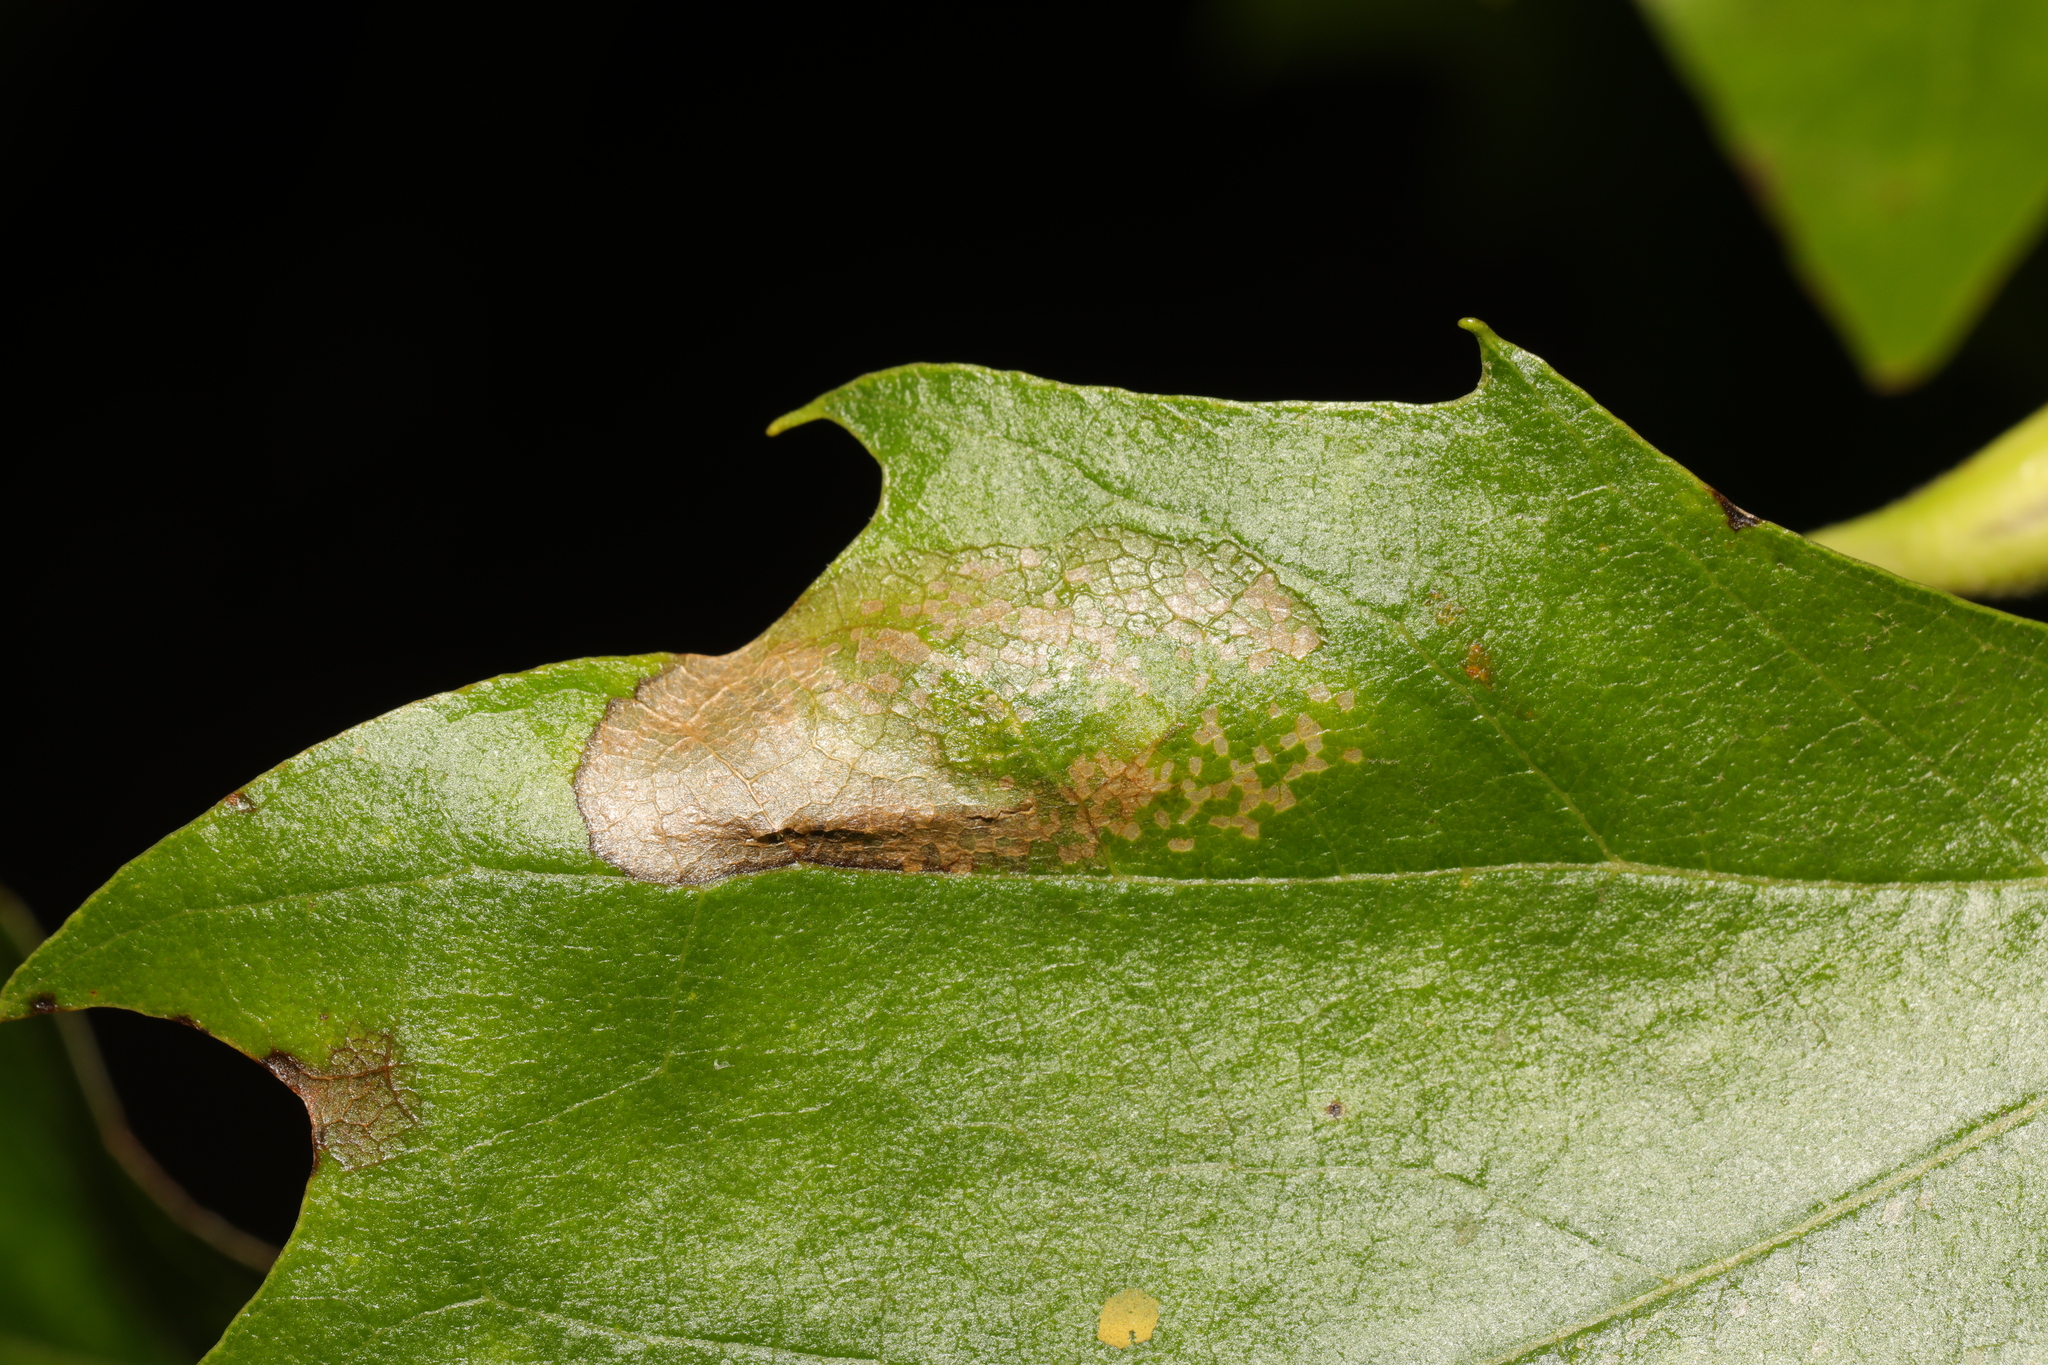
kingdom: Animalia
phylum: Arthropoda
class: Insecta
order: Lepidoptera
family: Gracillariidae
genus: Phyllonorycter
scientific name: Phyllonorycter platani
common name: London midget
